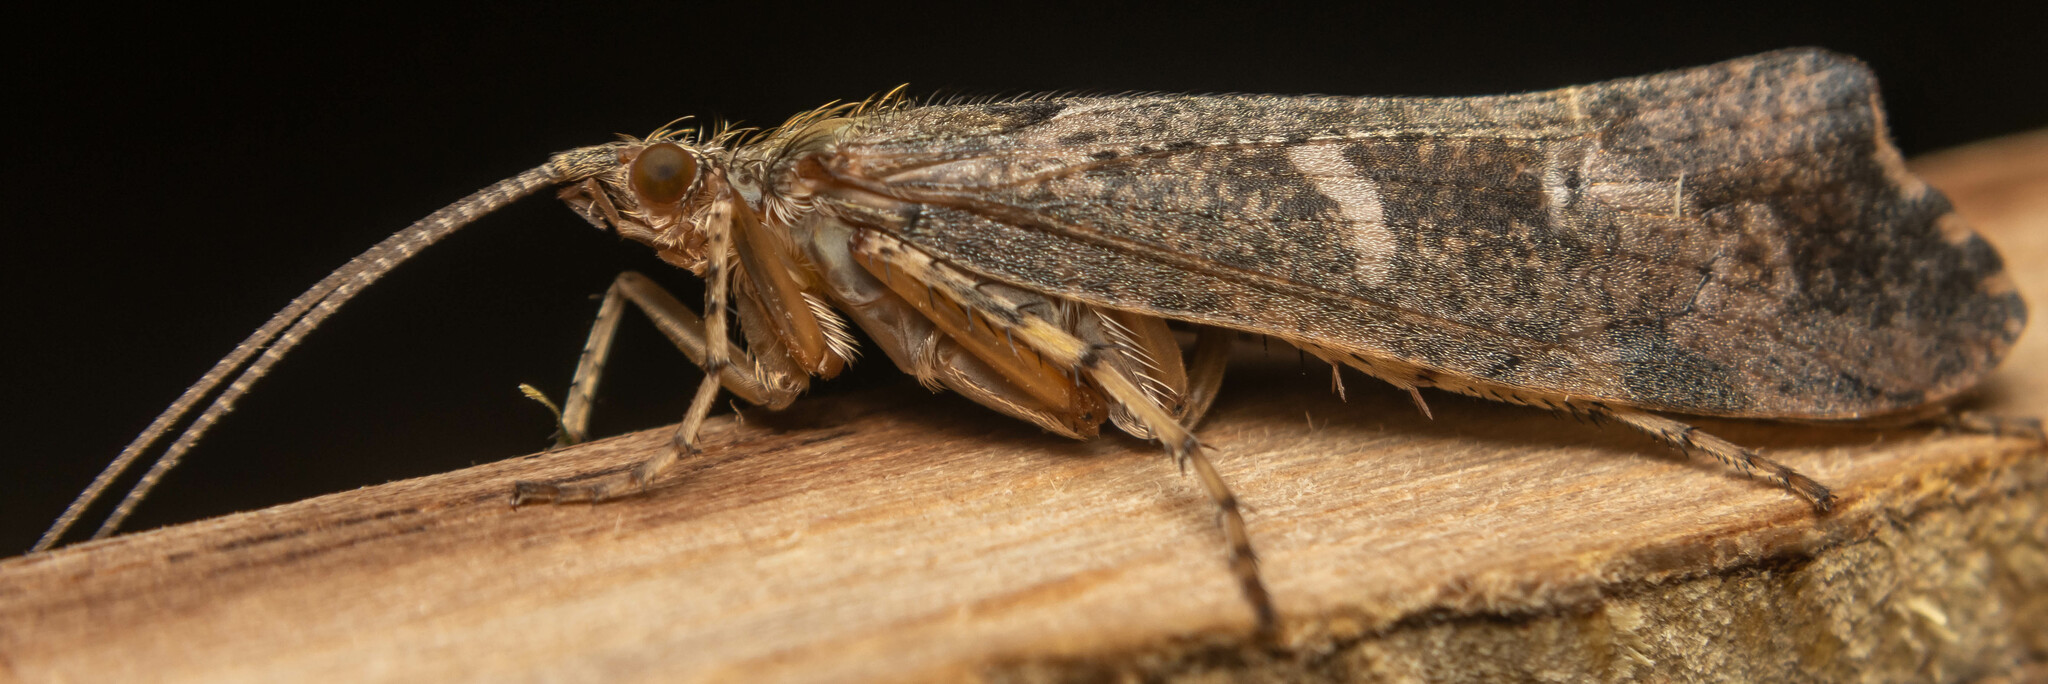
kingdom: Animalia
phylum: Arthropoda
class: Insecta
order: Trichoptera
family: Limnephilidae
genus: Glyphotaelius
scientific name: Glyphotaelius pellucidus
